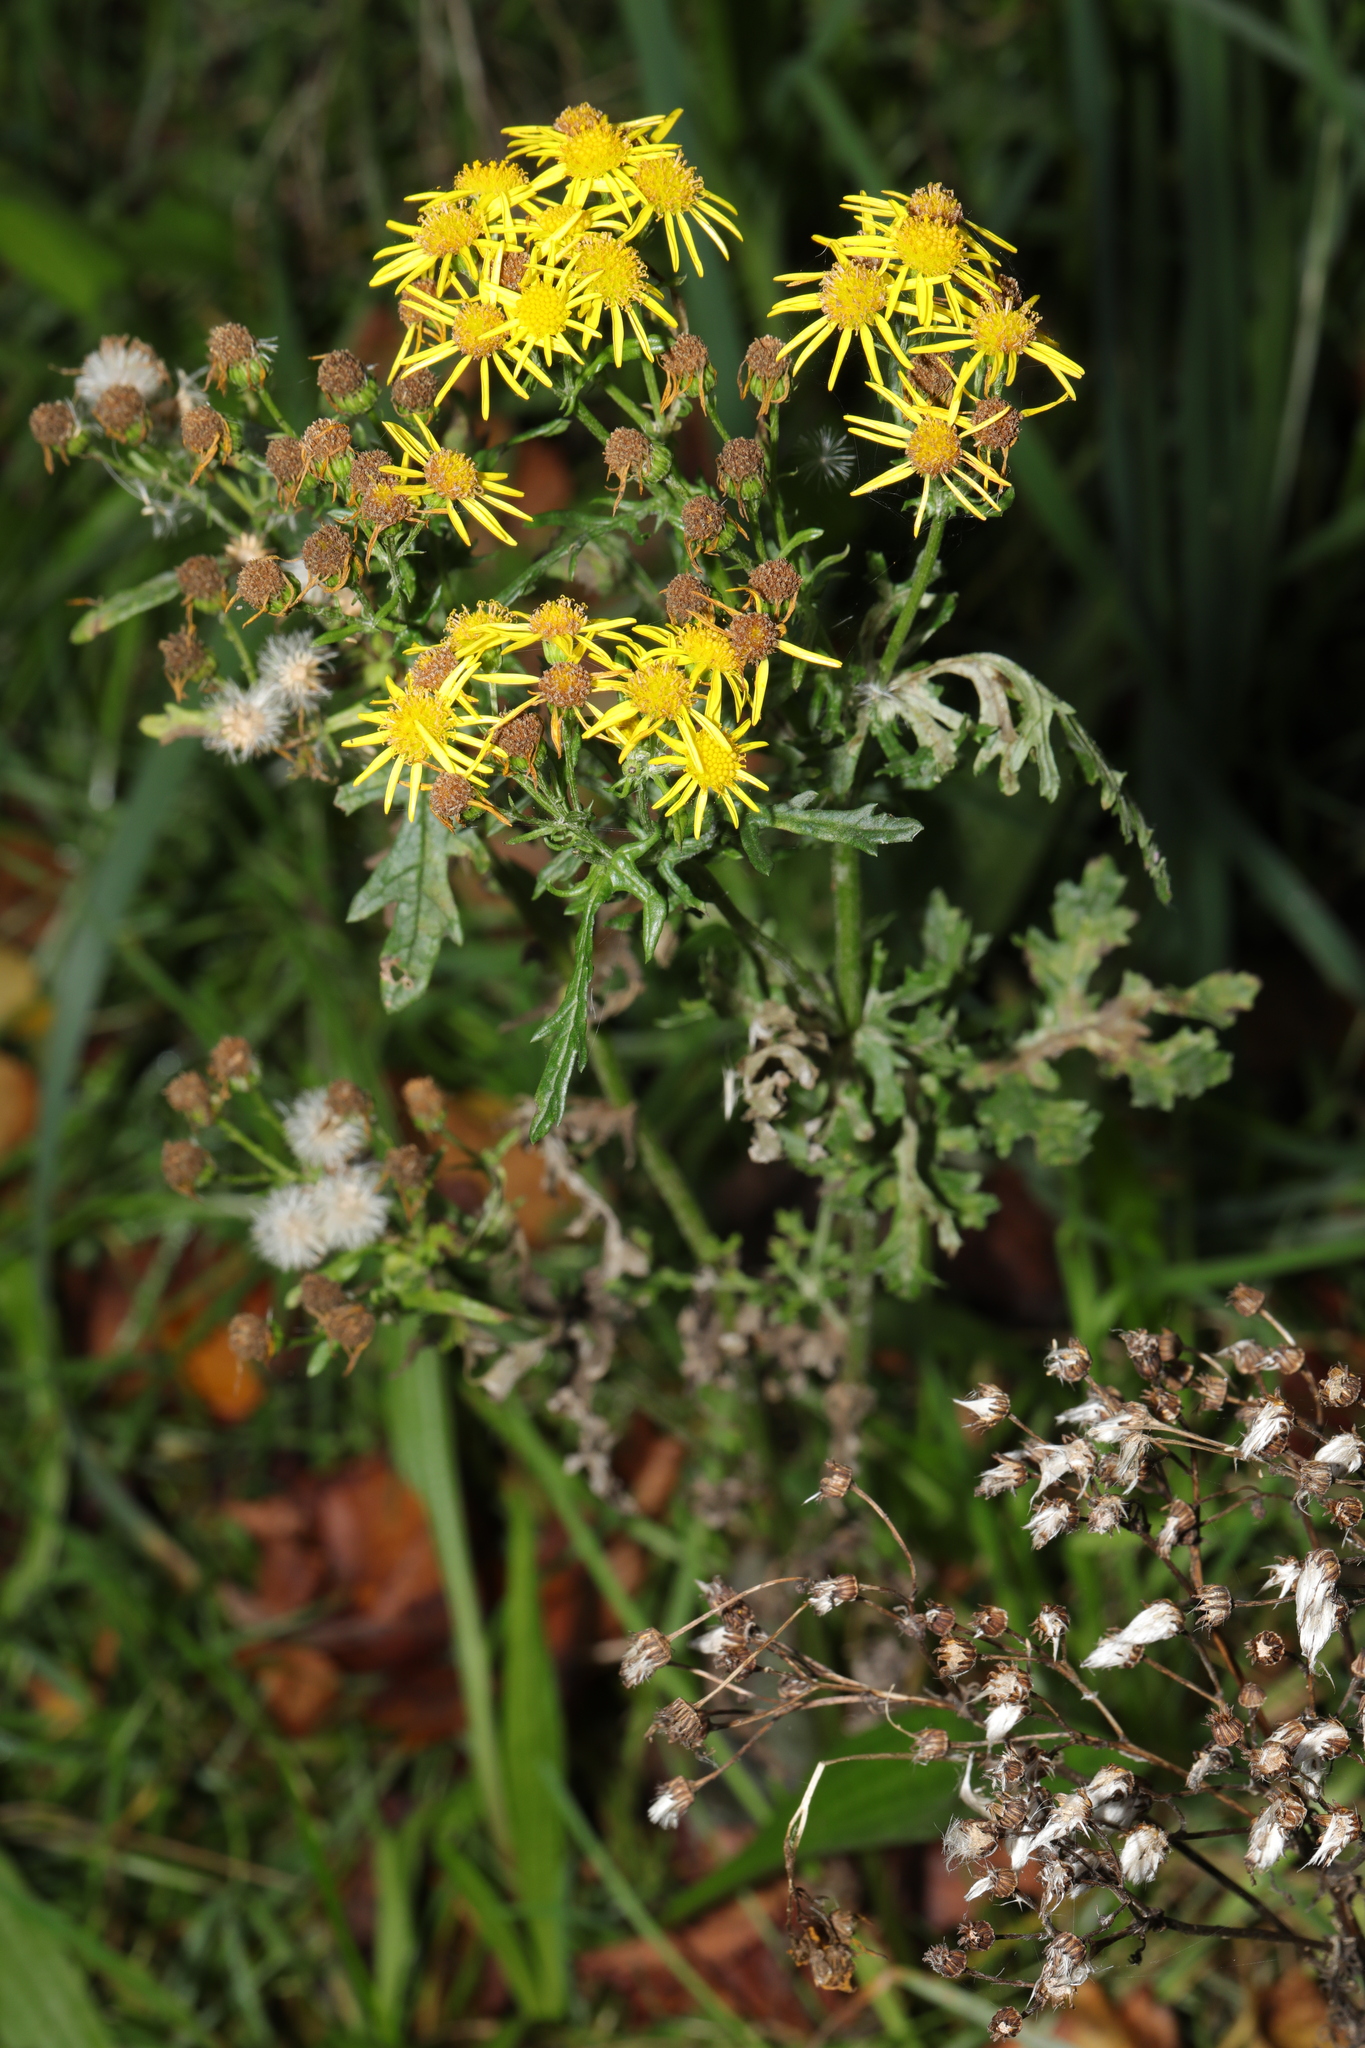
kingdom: Plantae
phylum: Tracheophyta
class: Magnoliopsida
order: Asterales
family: Asteraceae
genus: Jacobaea
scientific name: Jacobaea vulgaris
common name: Stinking willie
